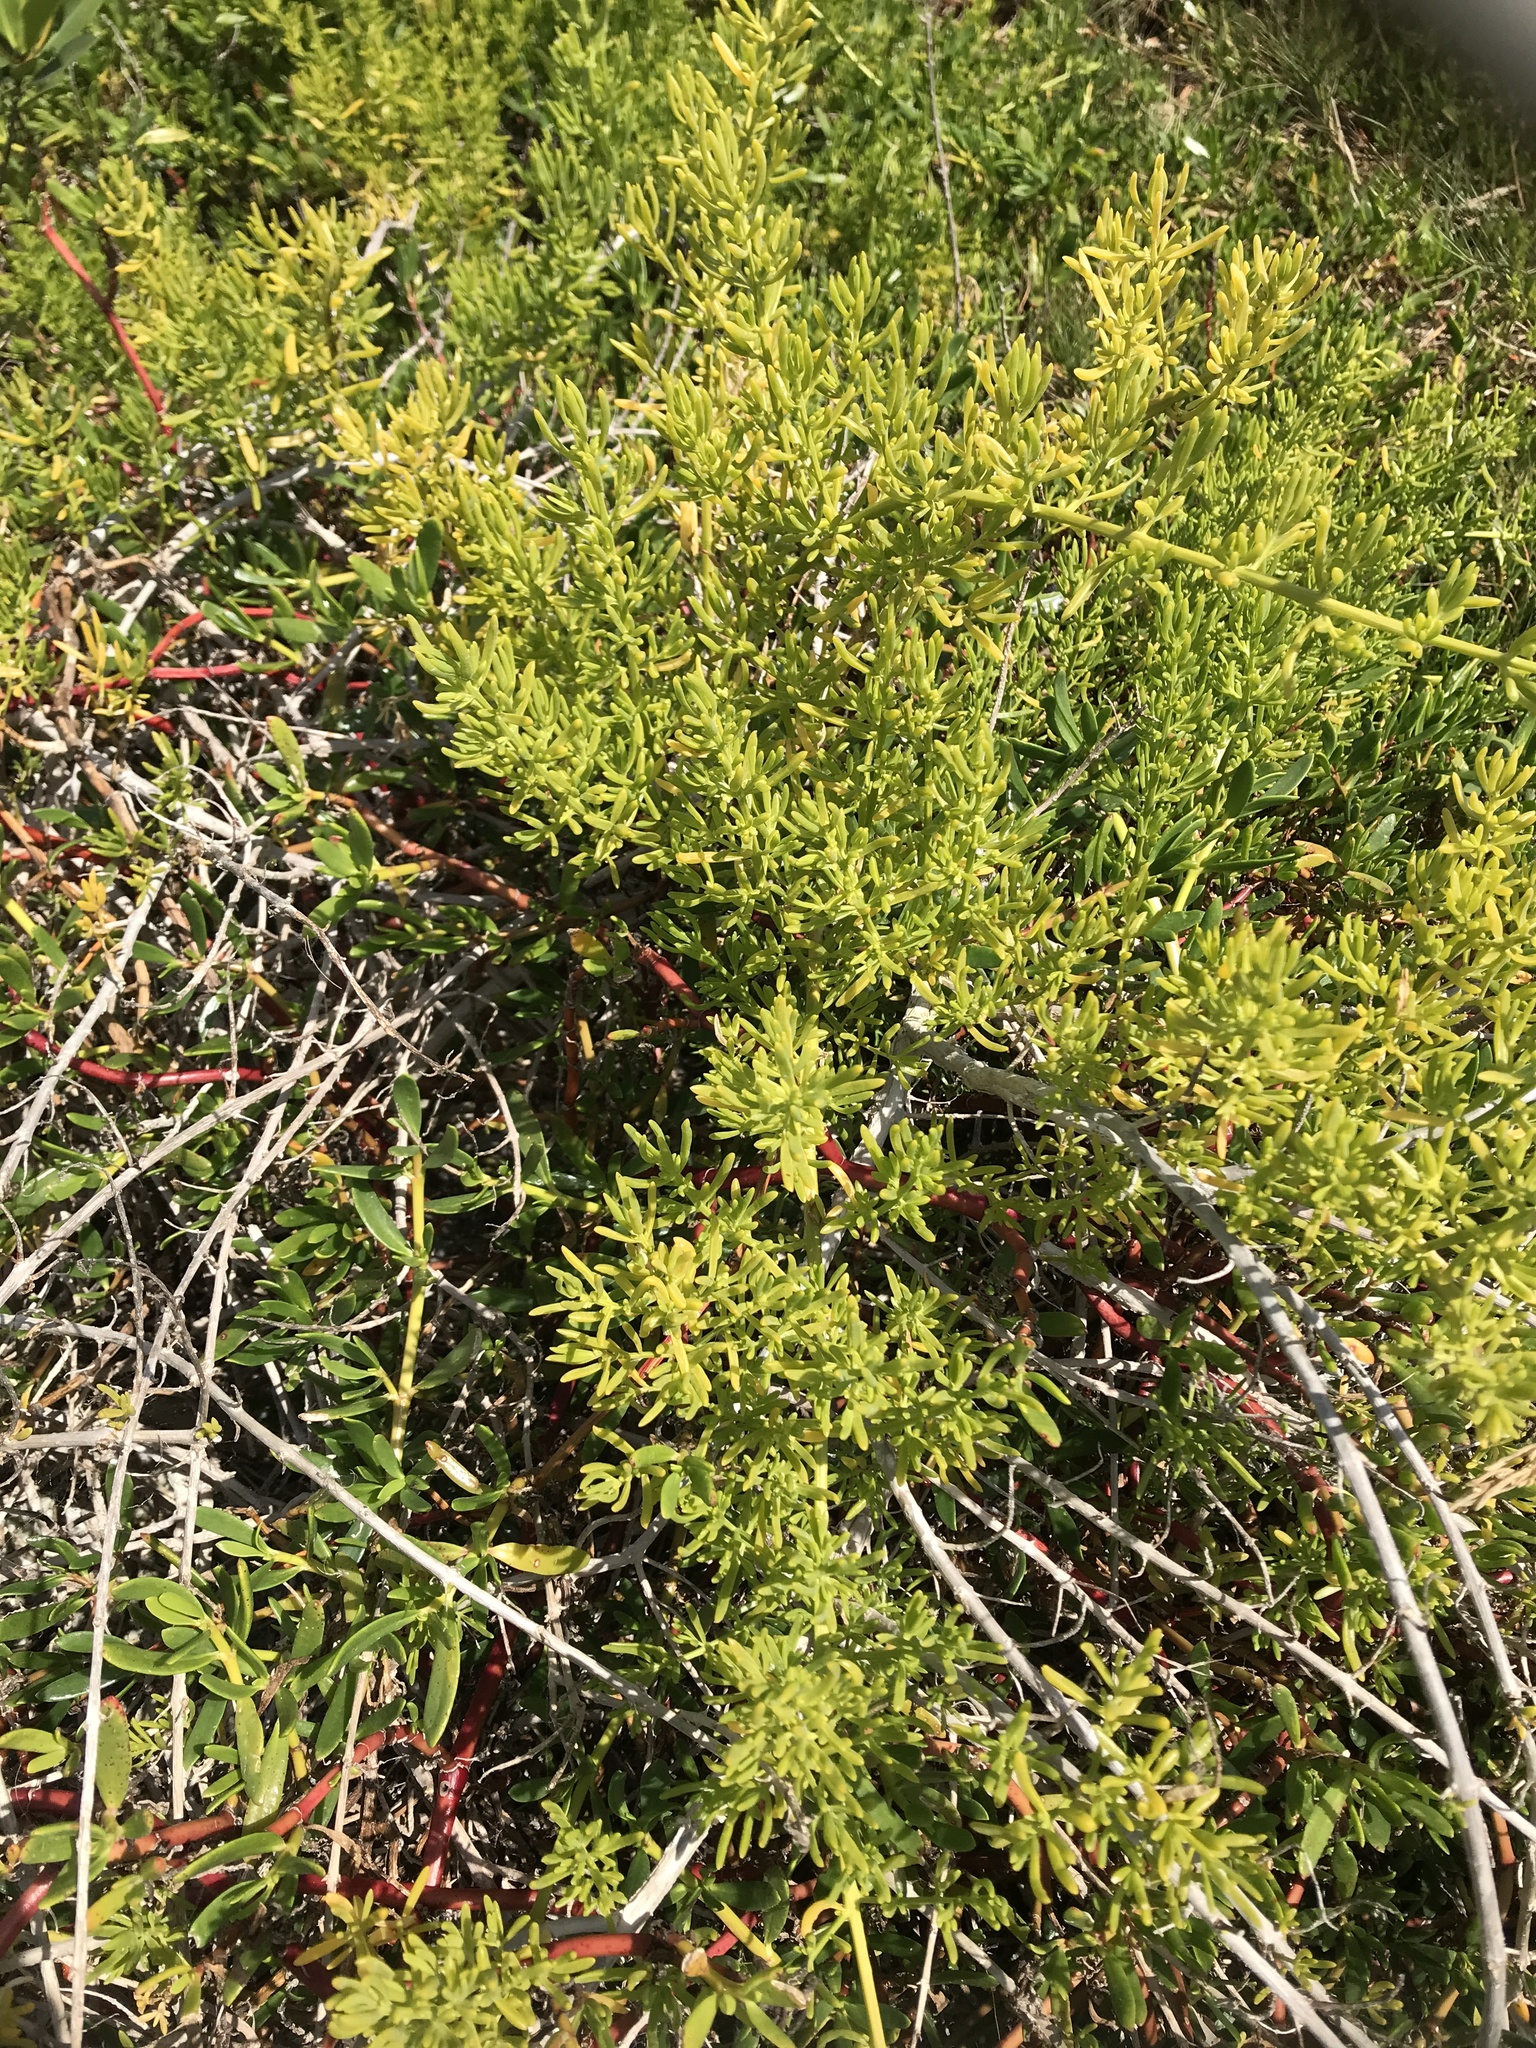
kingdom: Plantae
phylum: Tracheophyta
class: Magnoliopsida
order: Brassicales
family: Bataceae
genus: Batis
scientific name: Batis maritima
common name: Turtleweed
